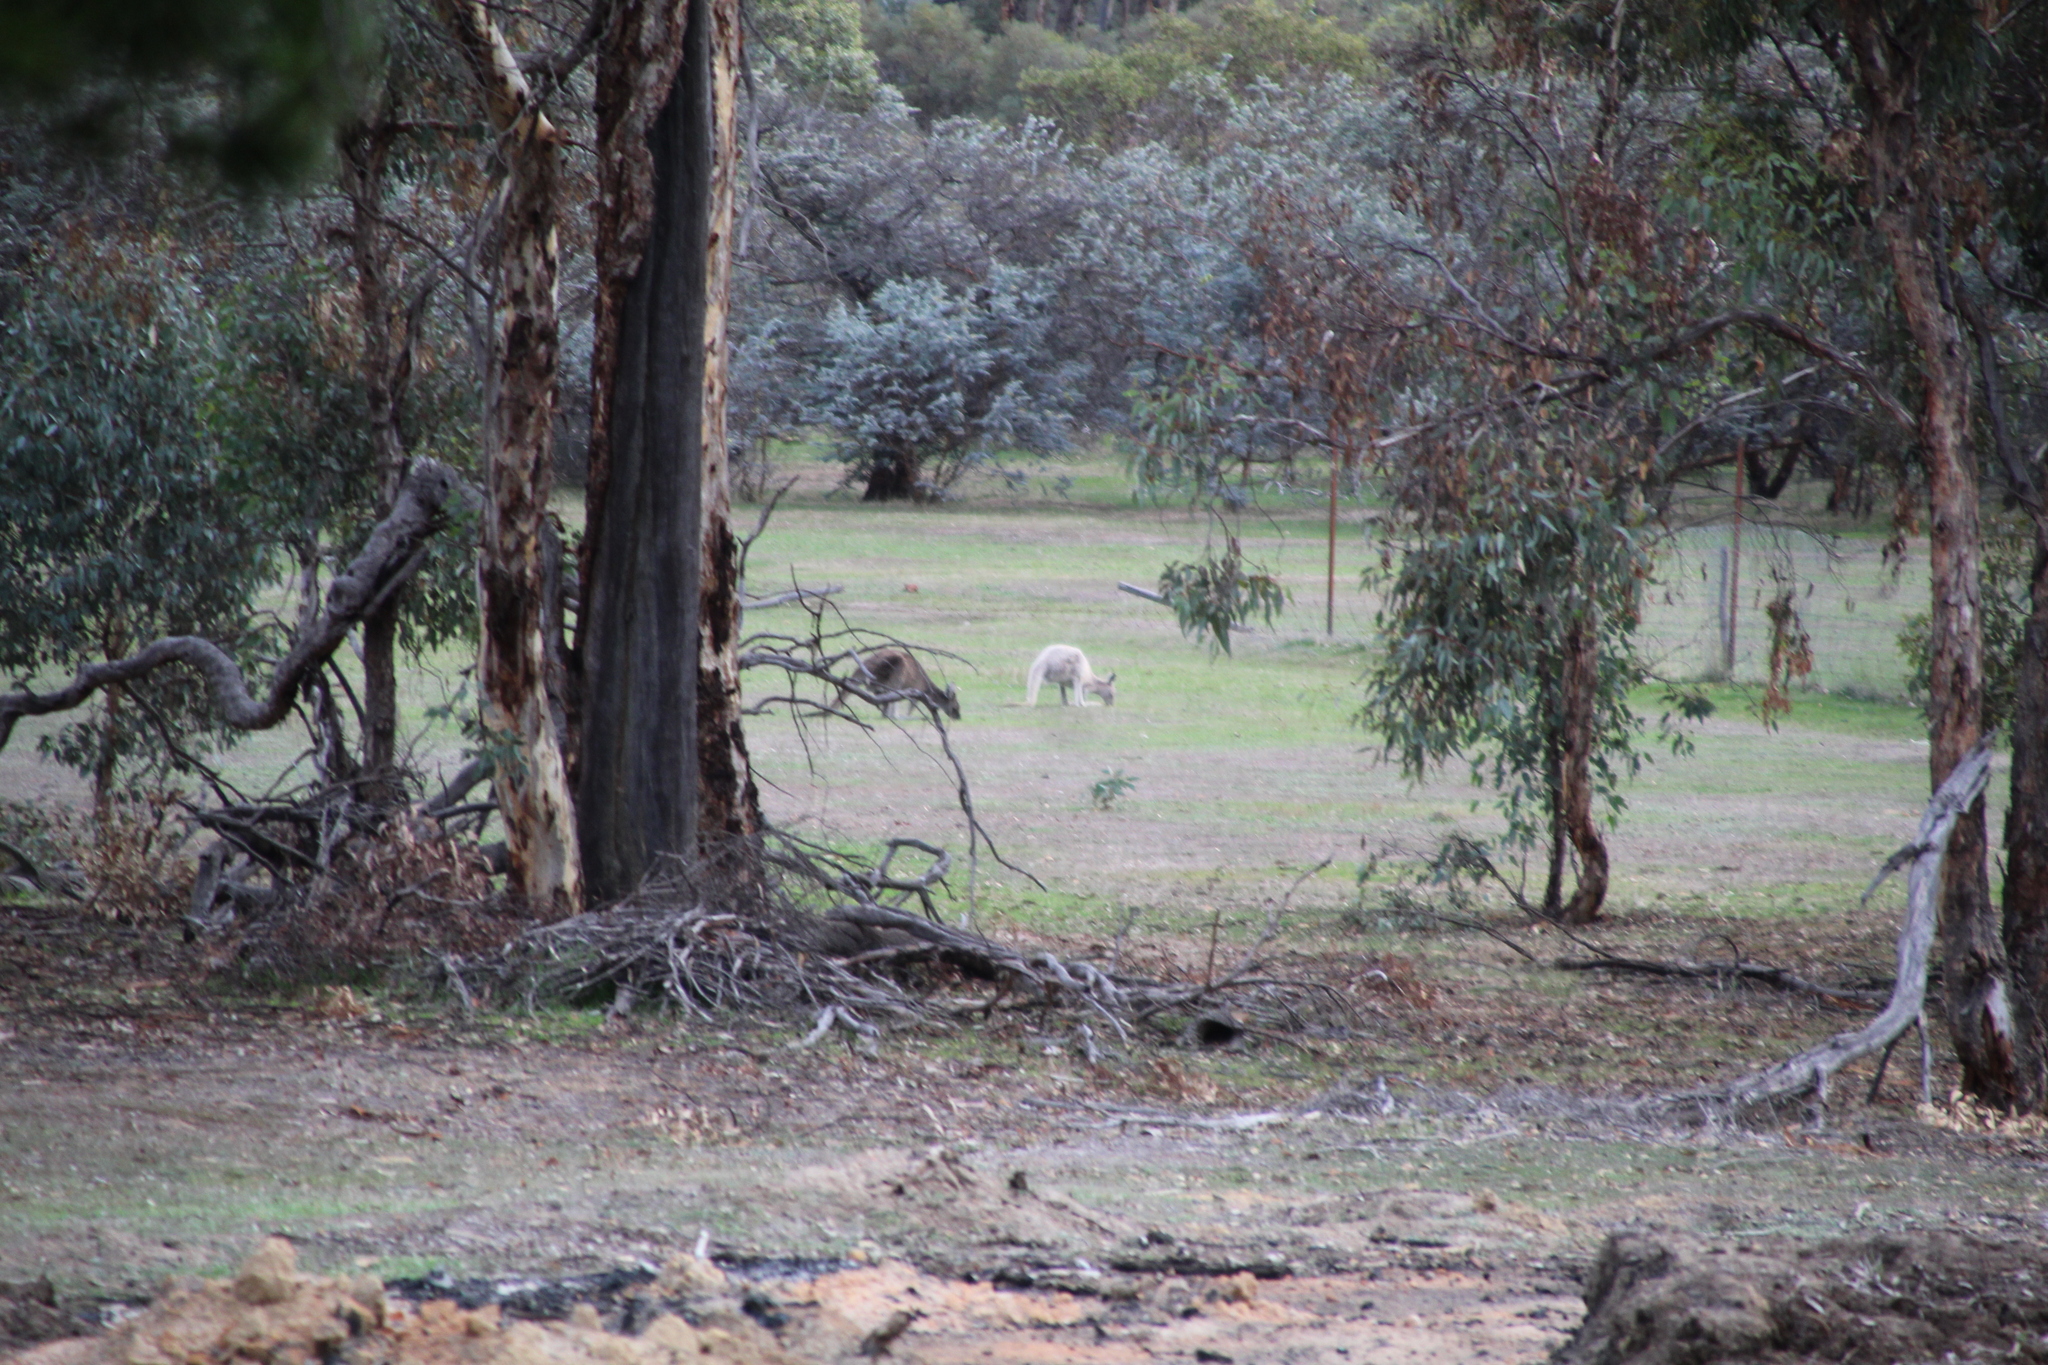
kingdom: Animalia
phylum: Chordata
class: Mammalia
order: Diprotodontia
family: Macropodidae
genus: Macropus
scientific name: Macropus fuliginosus
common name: Western grey kangaroo
